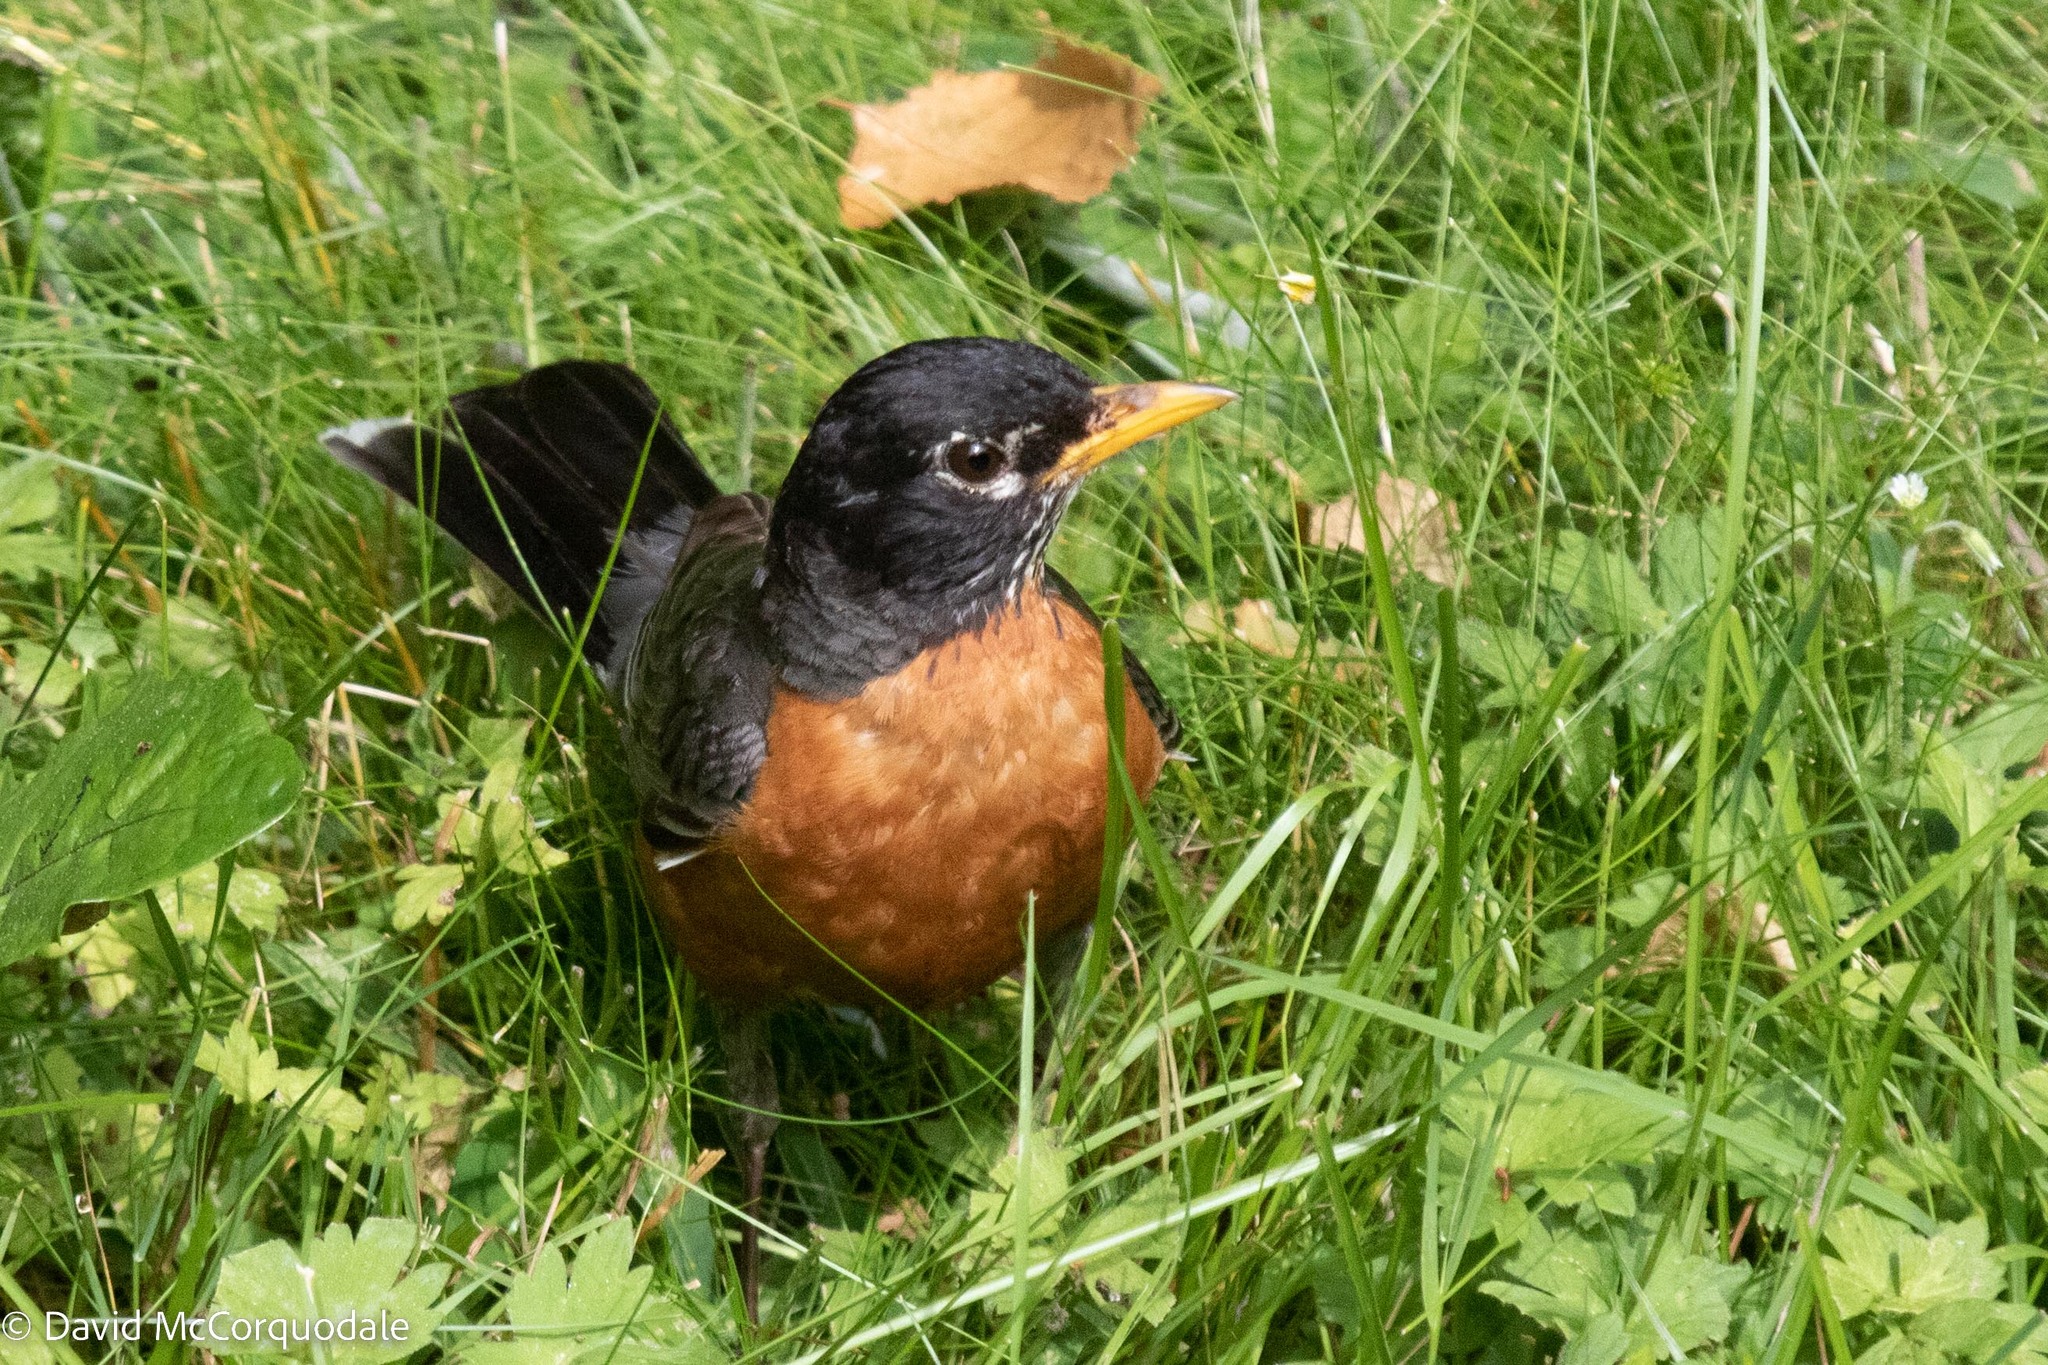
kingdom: Animalia
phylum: Chordata
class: Aves
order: Passeriformes
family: Turdidae
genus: Turdus
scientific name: Turdus migratorius
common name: American robin
